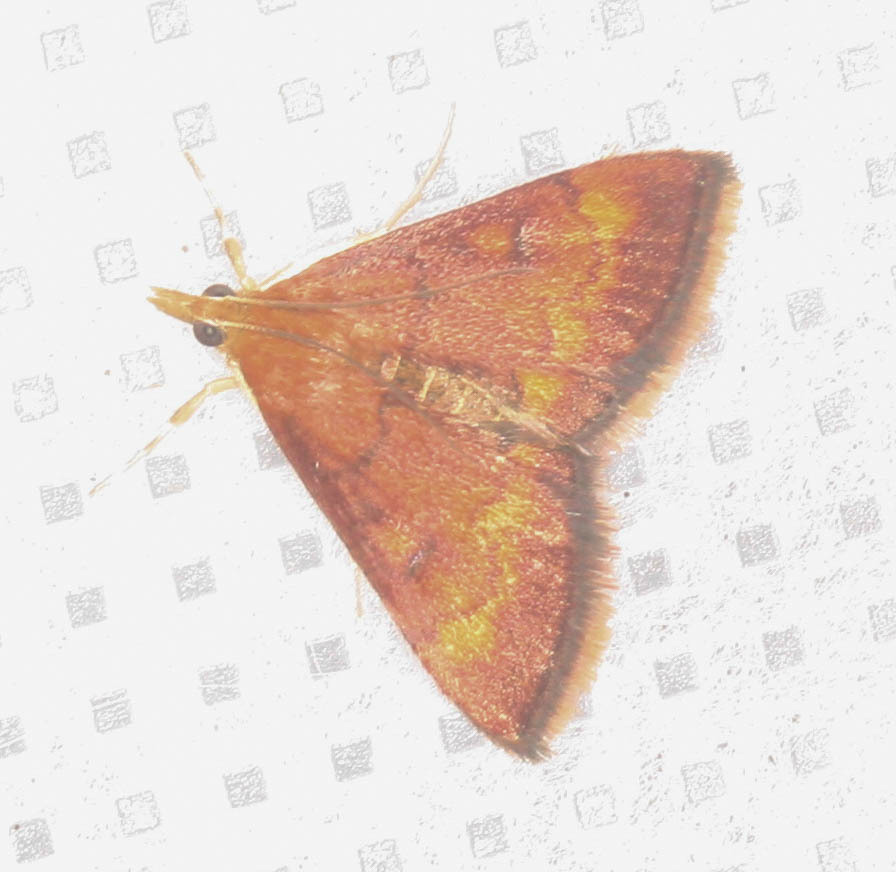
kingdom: Animalia
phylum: Arthropoda
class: Insecta
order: Lepidoptera
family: Crambidae
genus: Pyrausta
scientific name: Pyrausta californicalis
